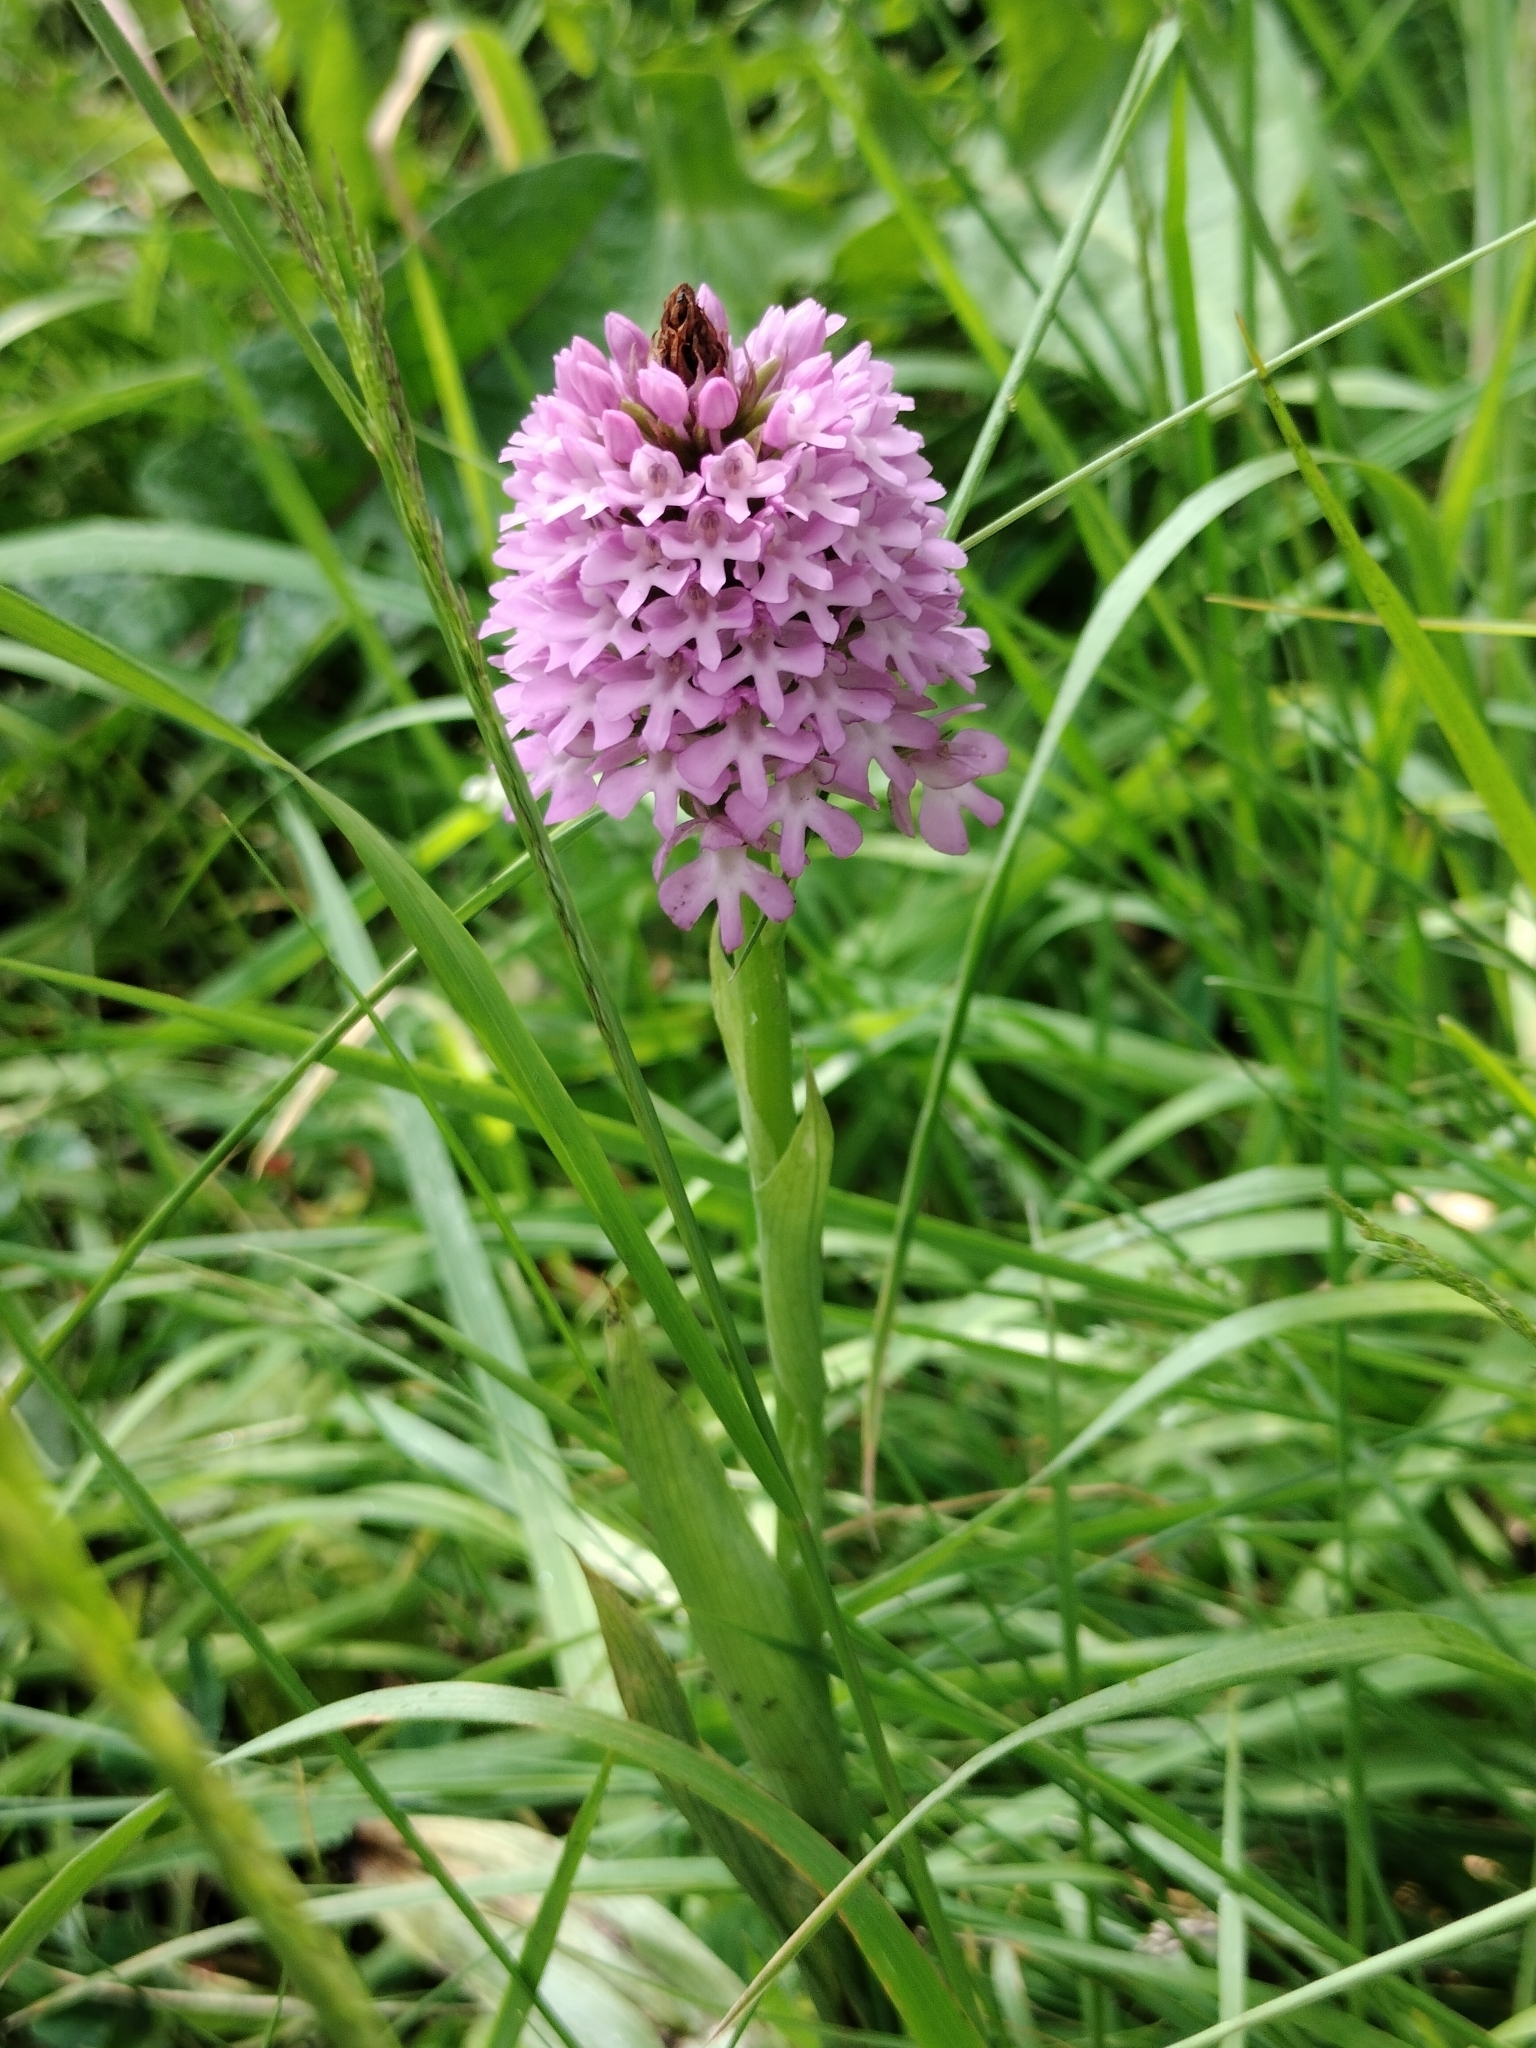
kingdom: Plantae
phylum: Tracheophyta
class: Liliopsida
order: Asparagales
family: Orchidaceae
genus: Anacamptis
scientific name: Anacamptis pyramidalis
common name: Pyramidal orchid
